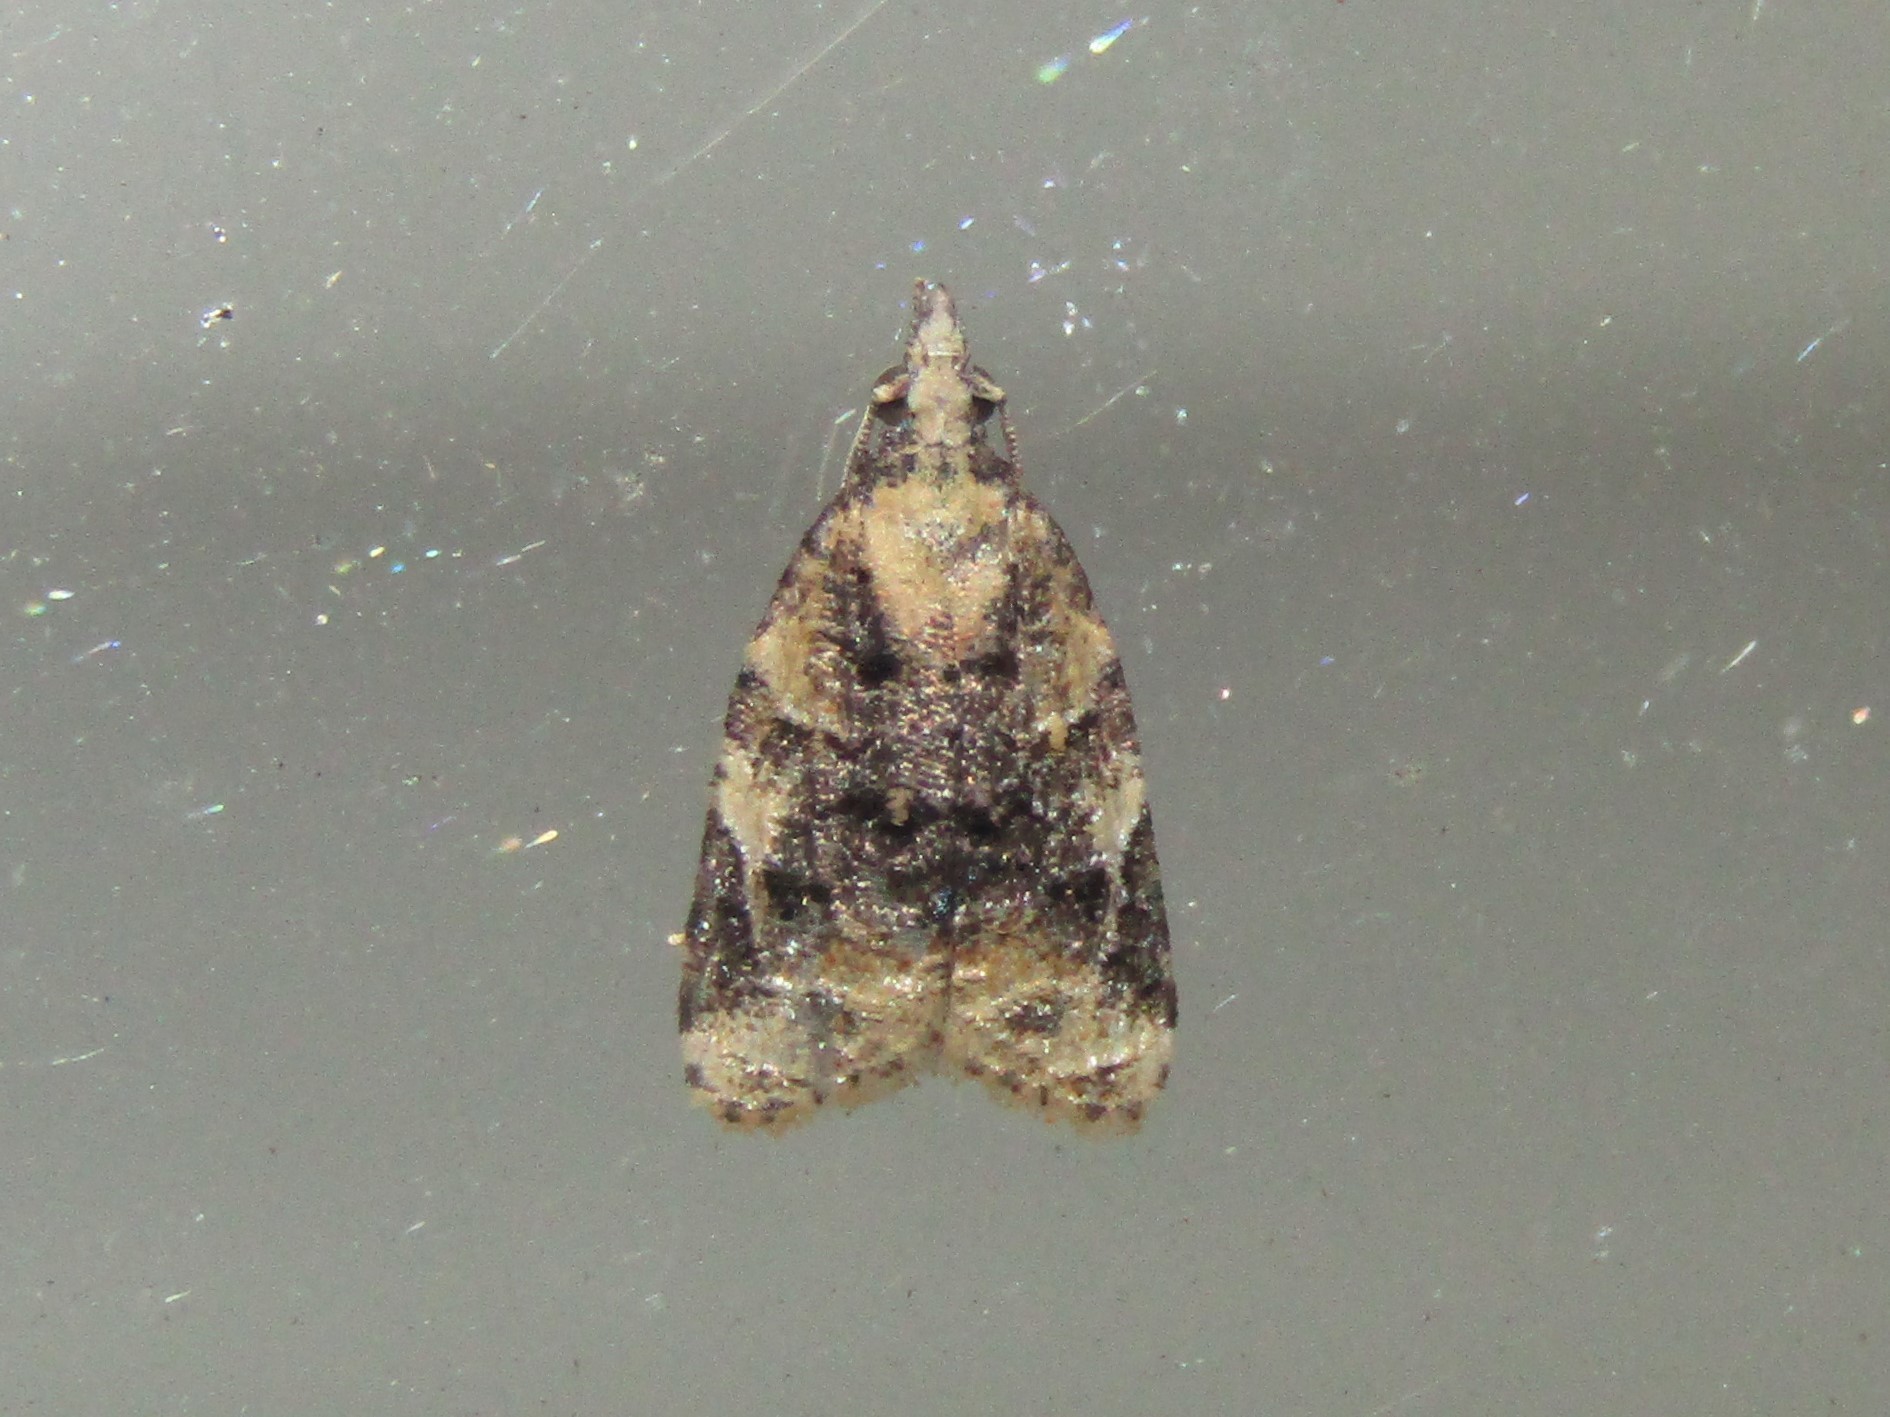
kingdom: Animalia
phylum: Arthropoda
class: Insecta
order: Lepidoptera
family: Tortricidae
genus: Platynota
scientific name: Platynota exasperatana
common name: Exasperating platynota moth
